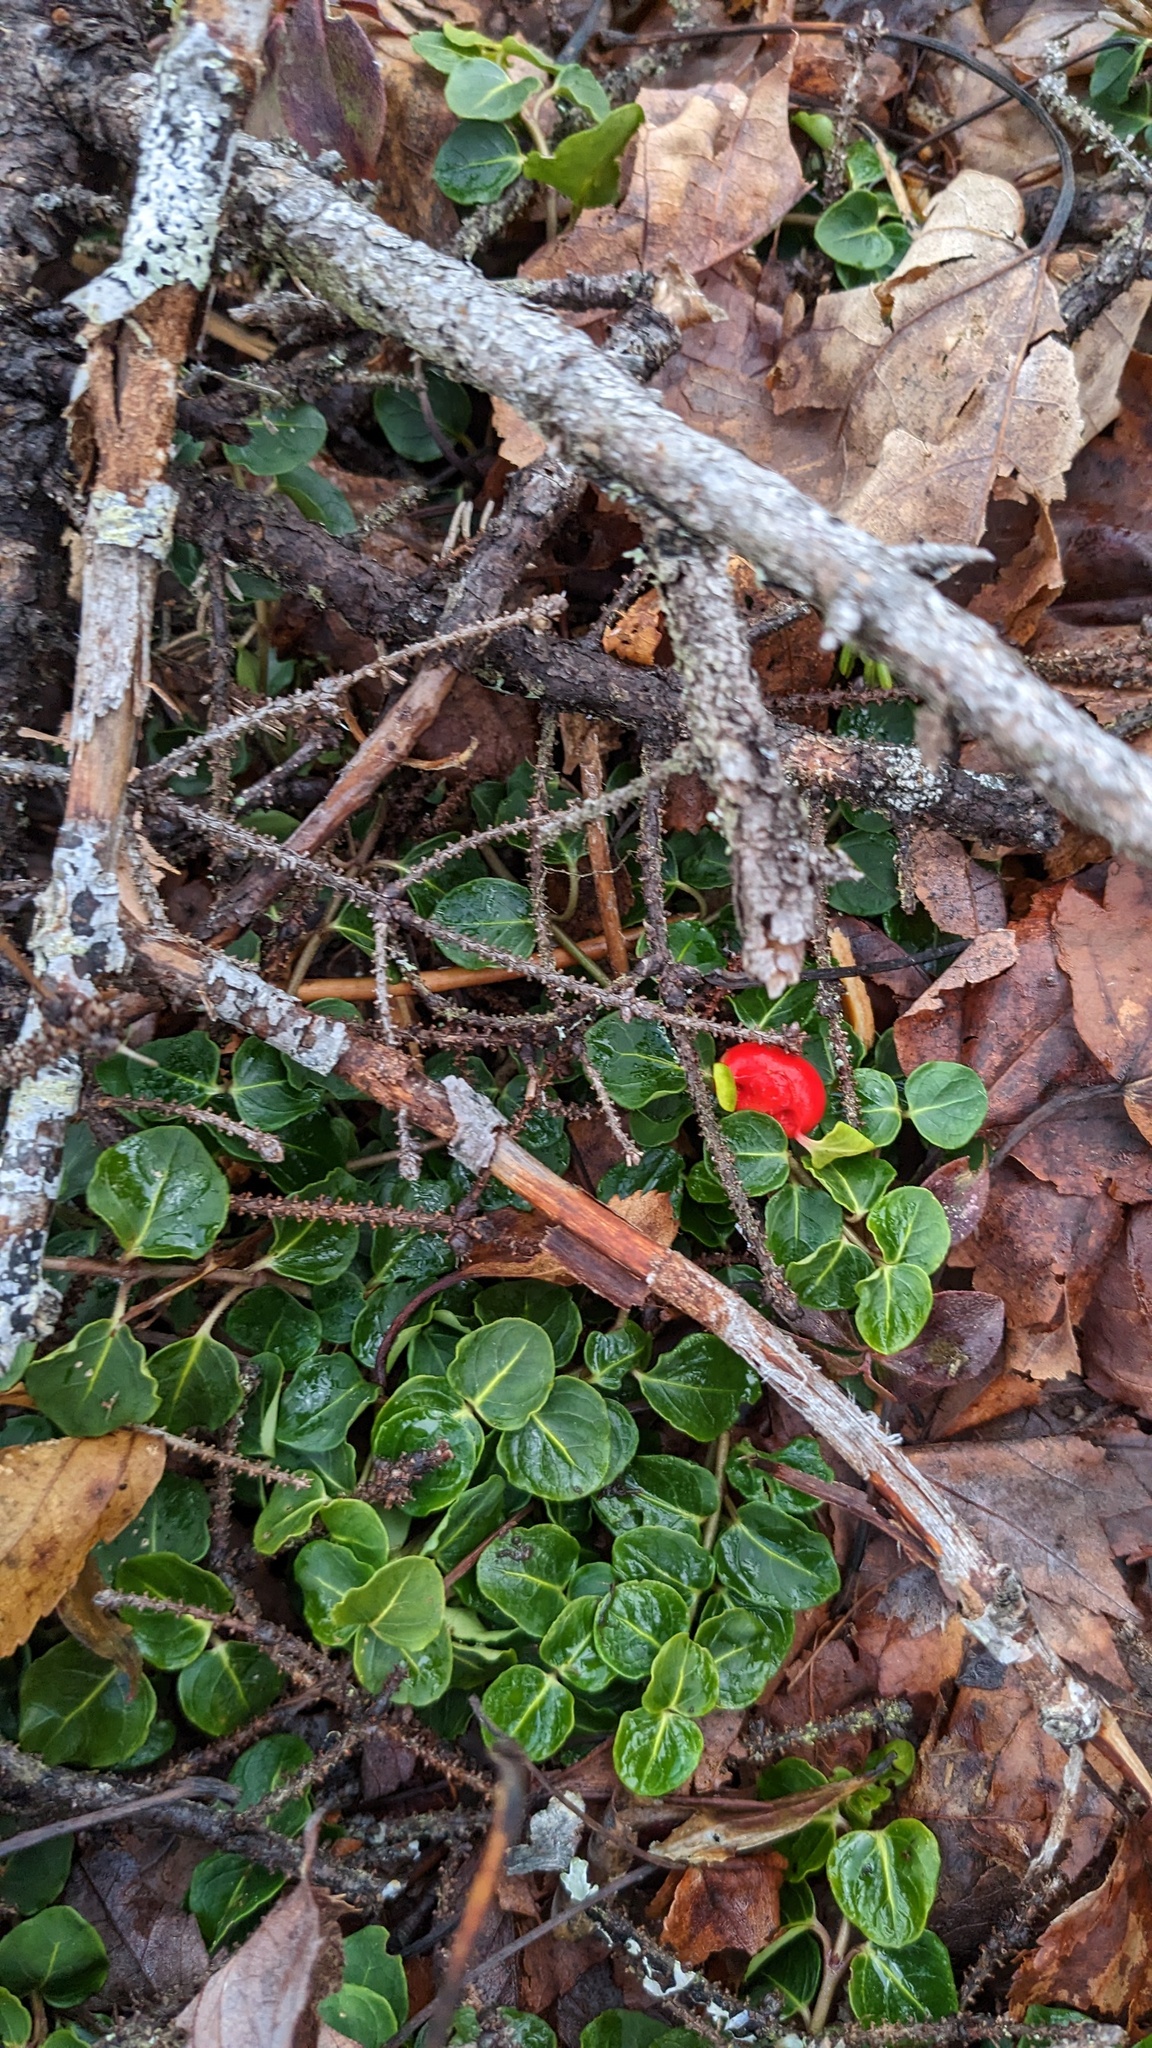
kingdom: Plantae
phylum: Tracheophyta
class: Magnoliopsida
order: Gentianales
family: Rubiaceae
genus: Mitchella
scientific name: Mitchella repens
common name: Partridge-berry
